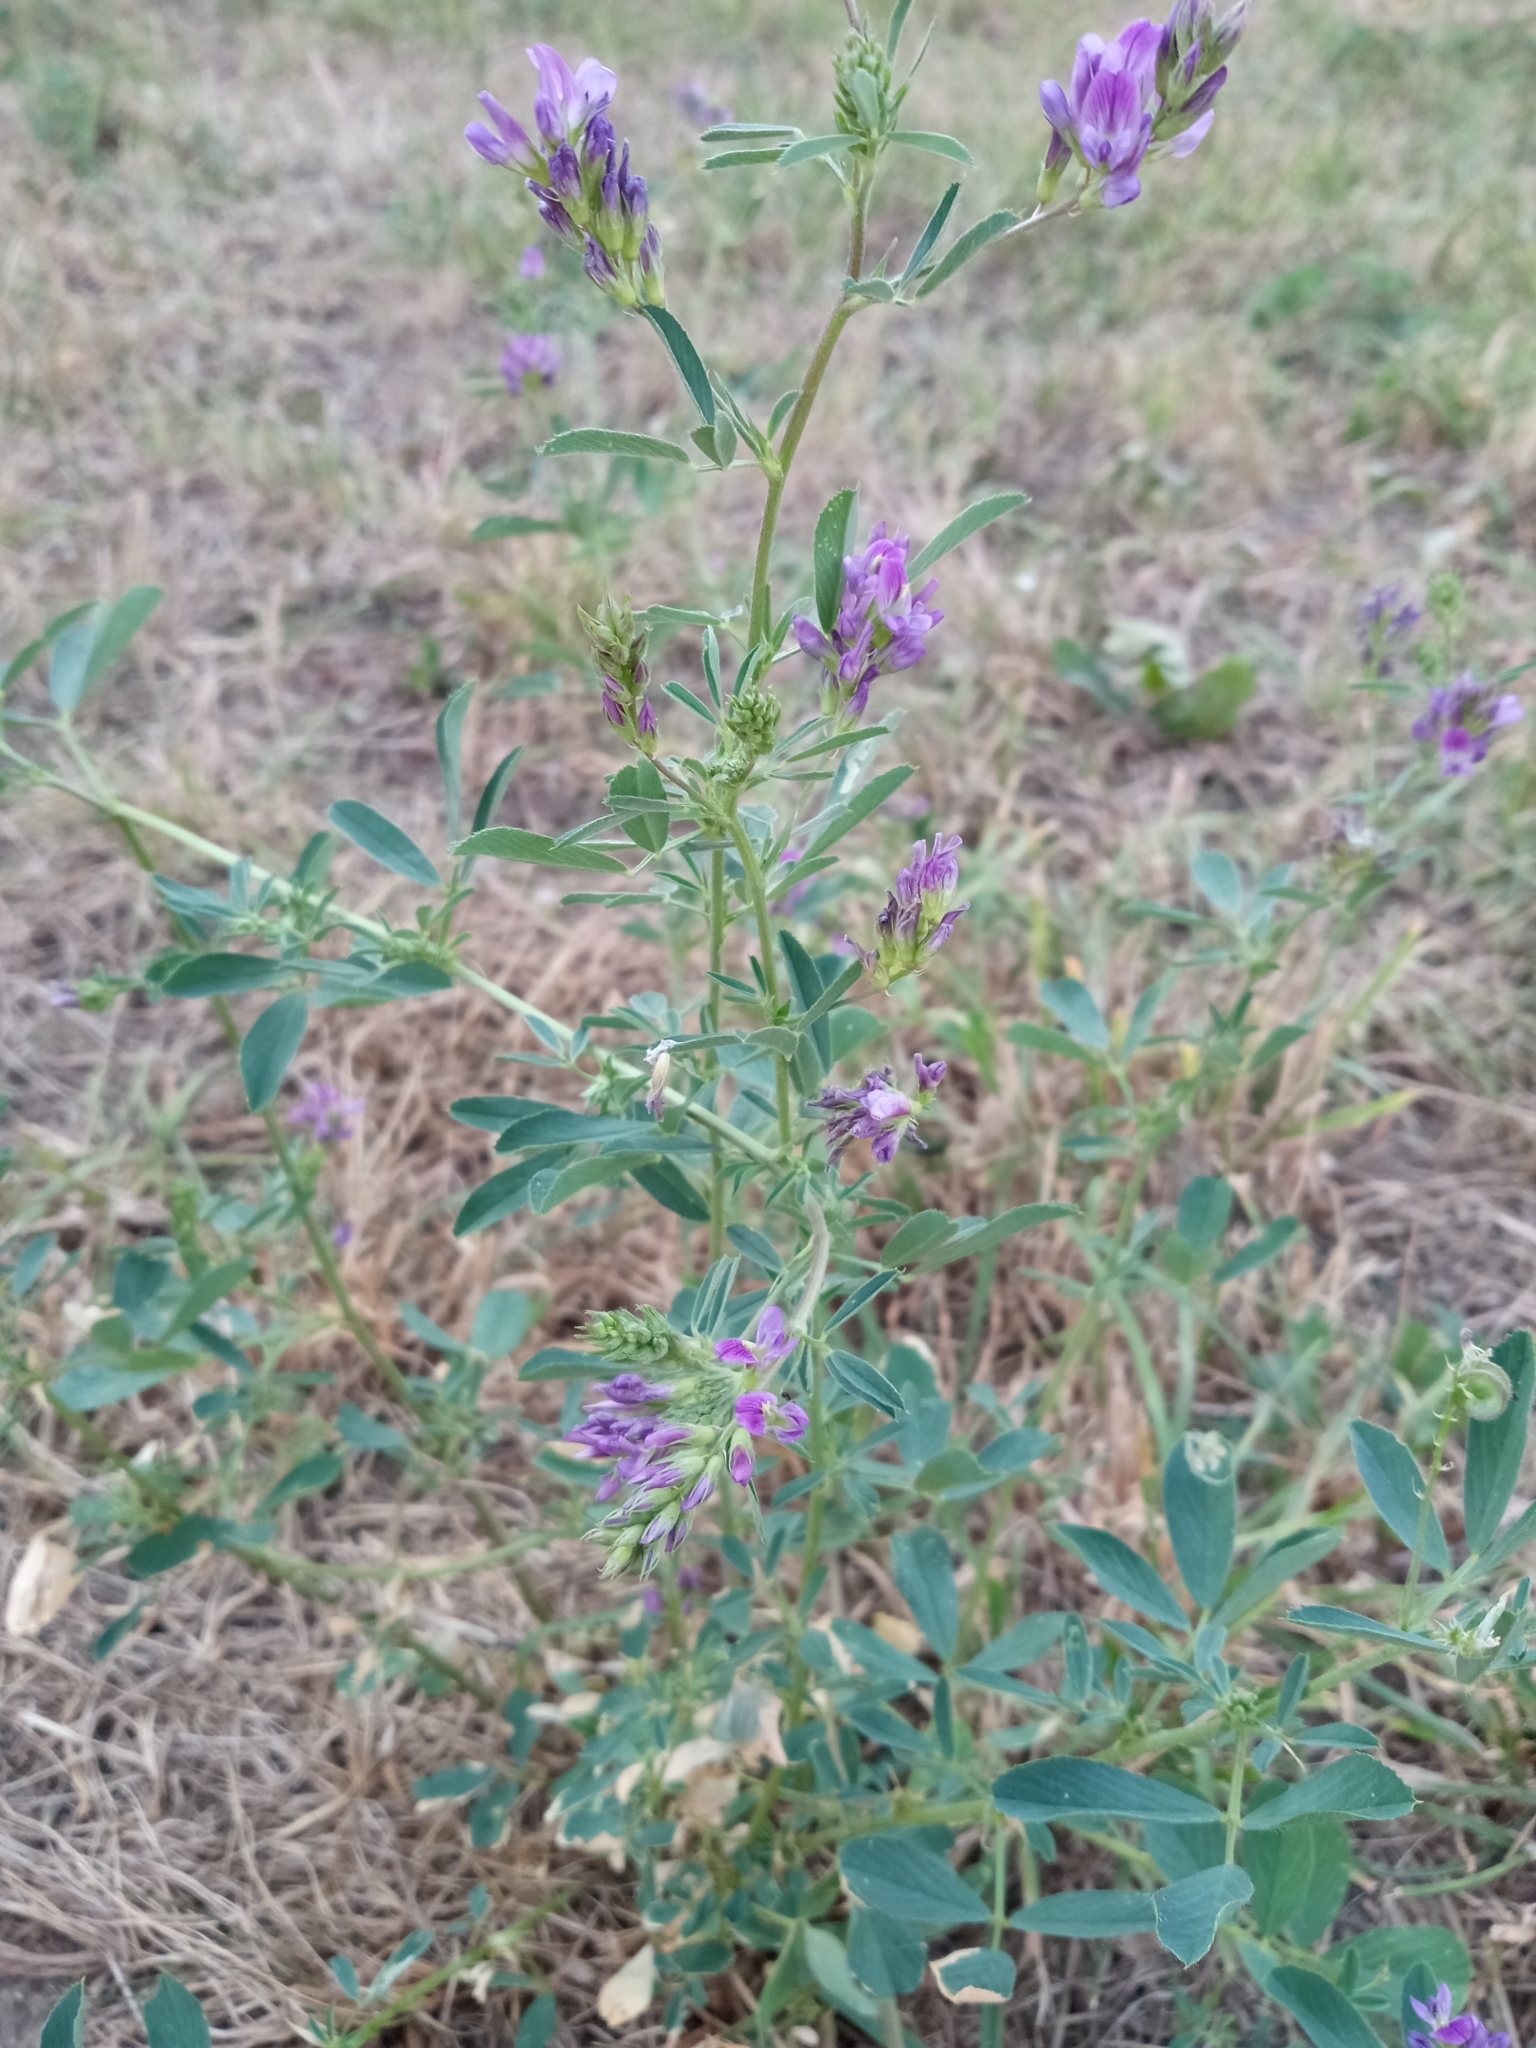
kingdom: Plantae
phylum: Tracheophyta
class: Magnoliopsida
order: Fabales
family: Fabaceae
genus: Medicago
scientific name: Medicago sativa
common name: Alfalfa
